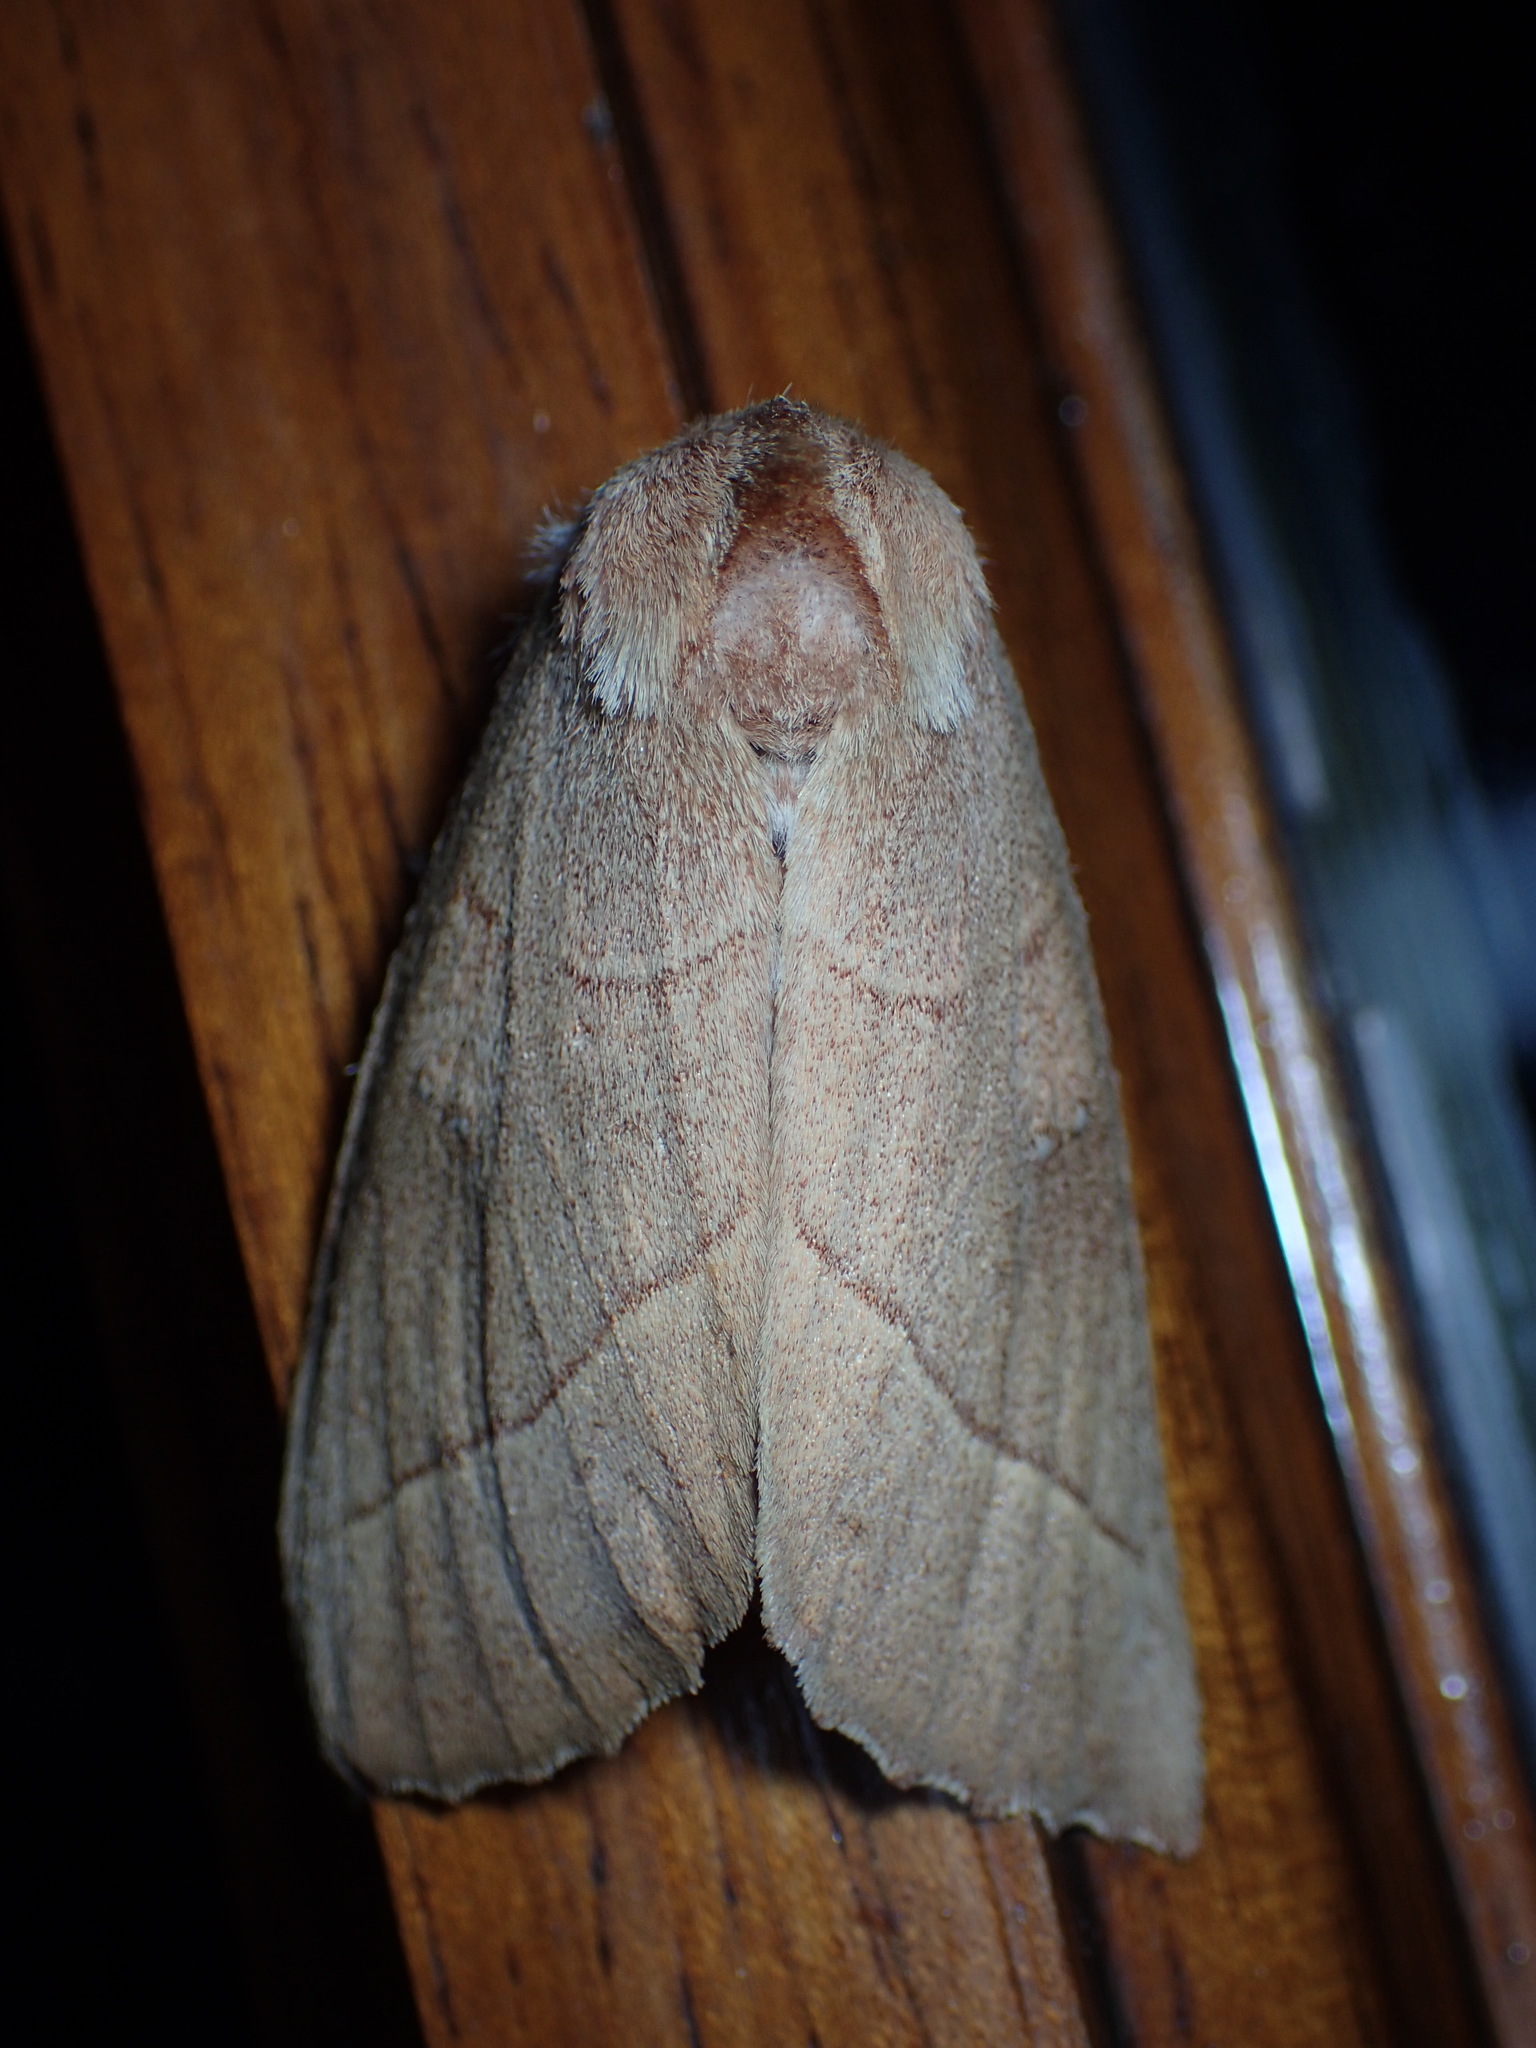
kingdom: Animalia
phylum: Arthropoda
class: Insecta
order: Lepidoptera
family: Notodontidae
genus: Nadata
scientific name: Nadata gibbosa
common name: White-dotted prominent
